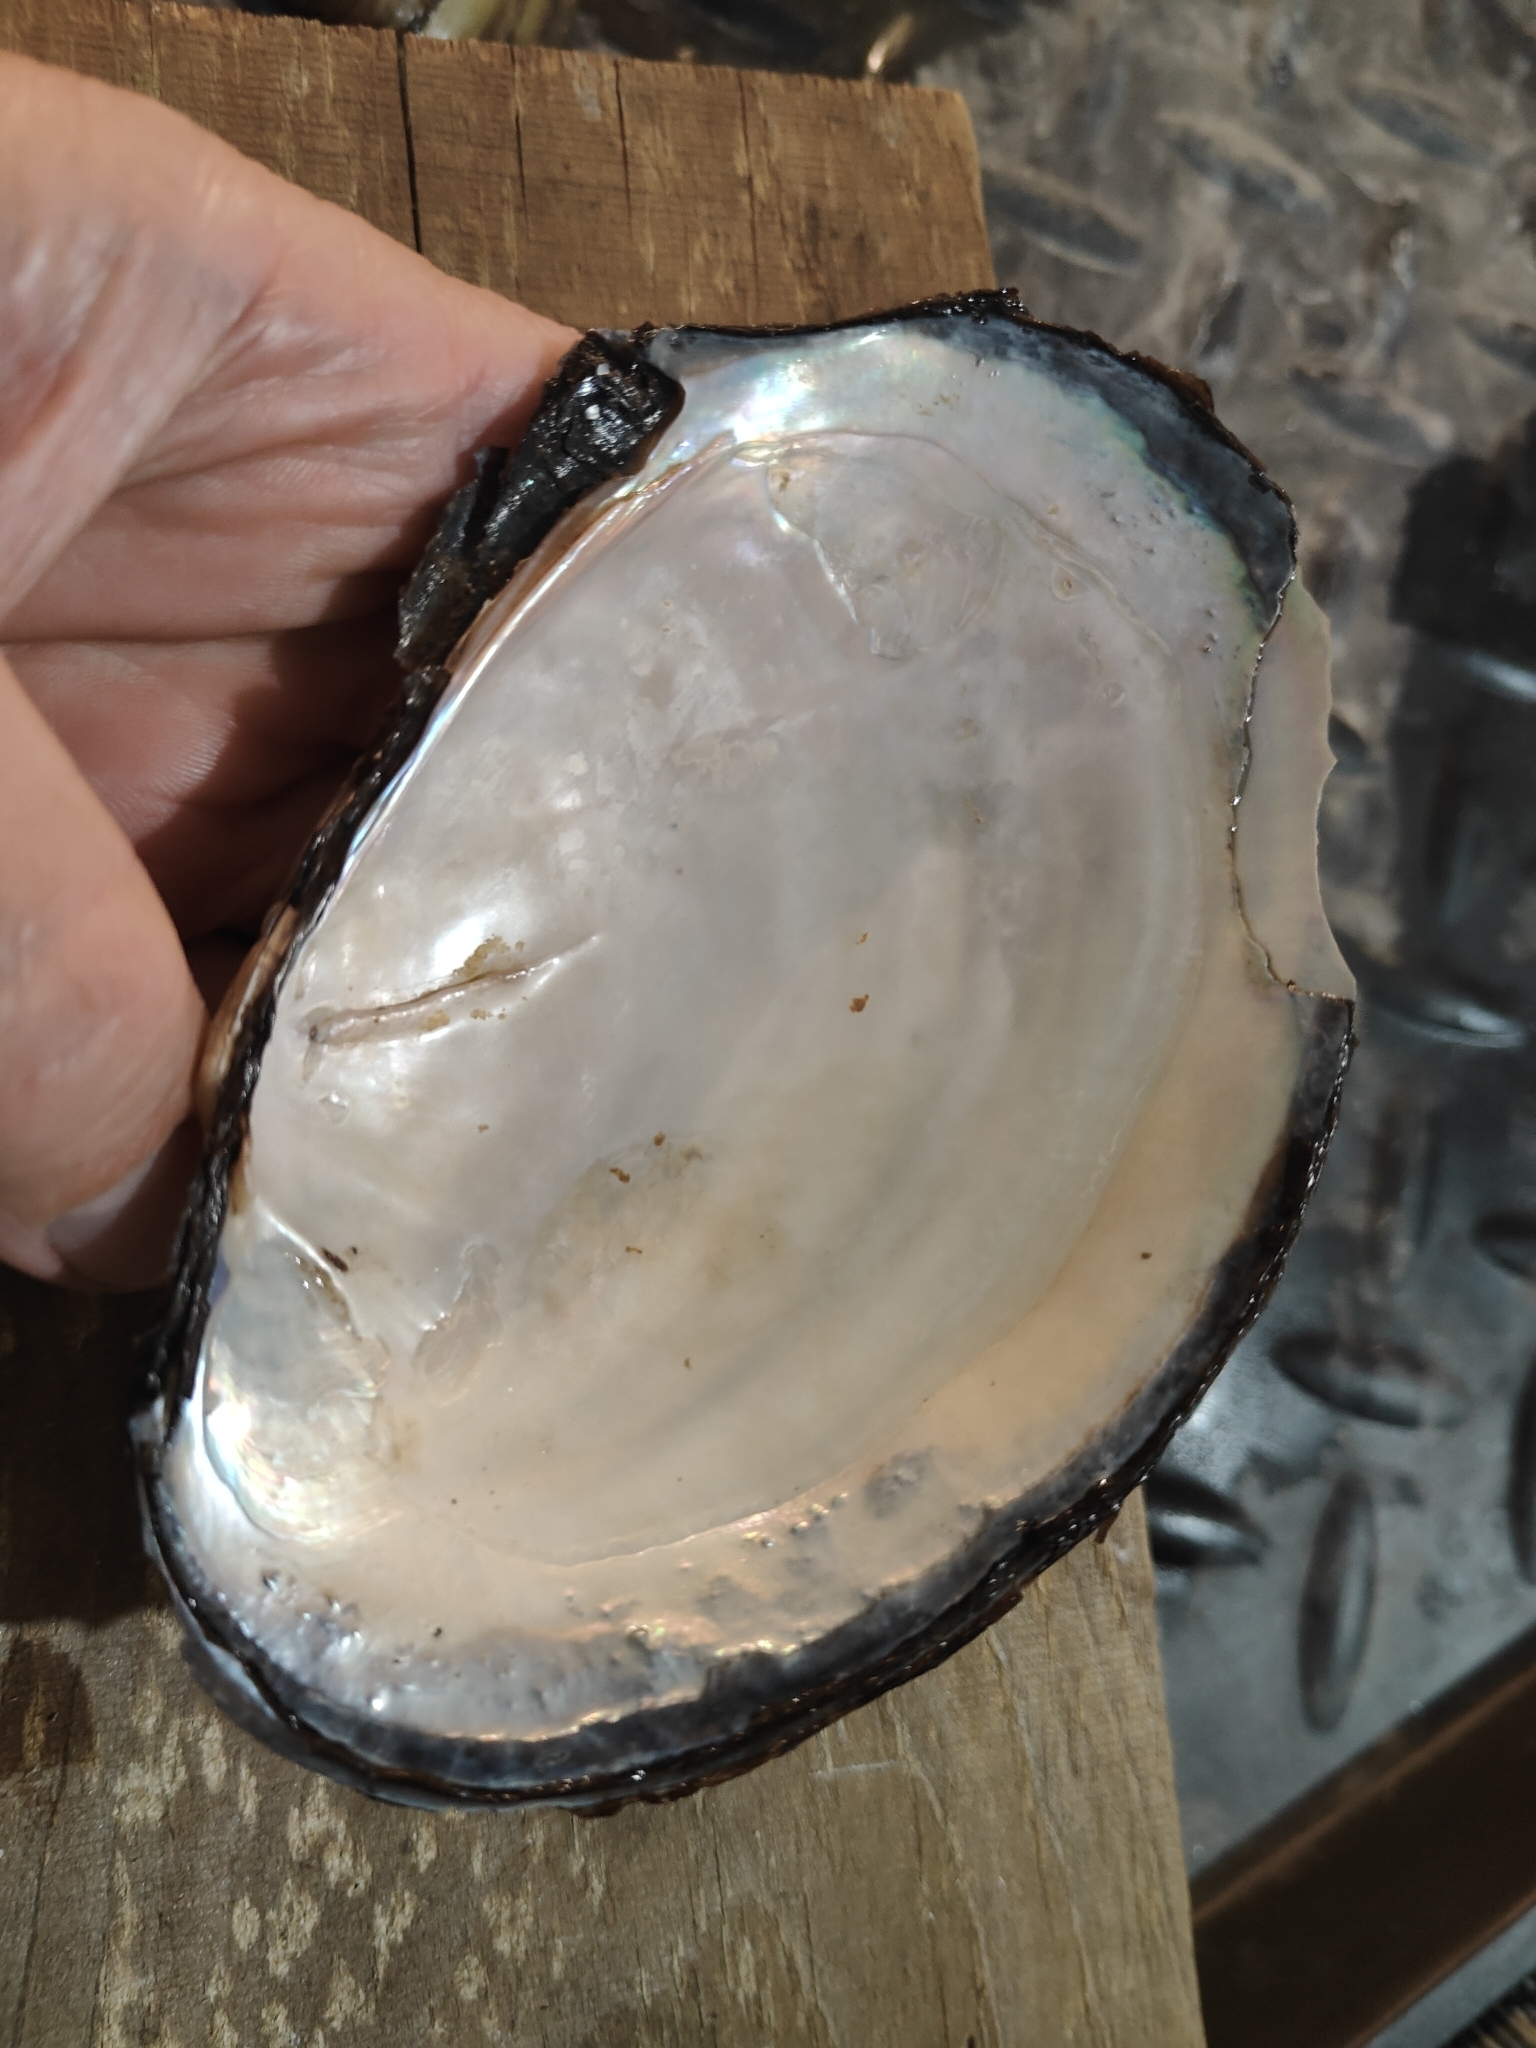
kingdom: Animalia
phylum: Mollusca
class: Bivalvia
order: Unionida
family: Unionidae
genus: Potamilus
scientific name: Potamilus fragilis
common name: Fragile papershell
